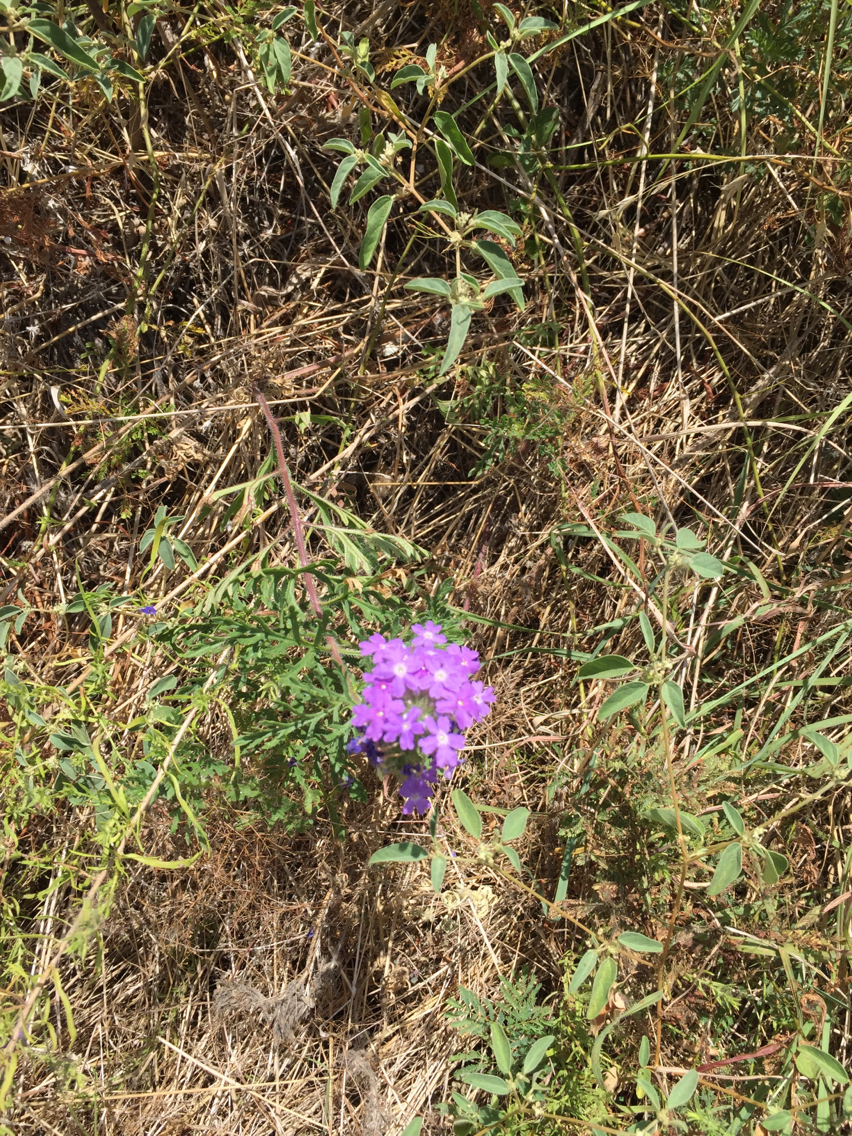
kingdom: Plantae
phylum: Tracheophyta
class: Magnoliopsida
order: Lamiales
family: Verbenaceae
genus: Verbena
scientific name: Verbena bipinnatifida
